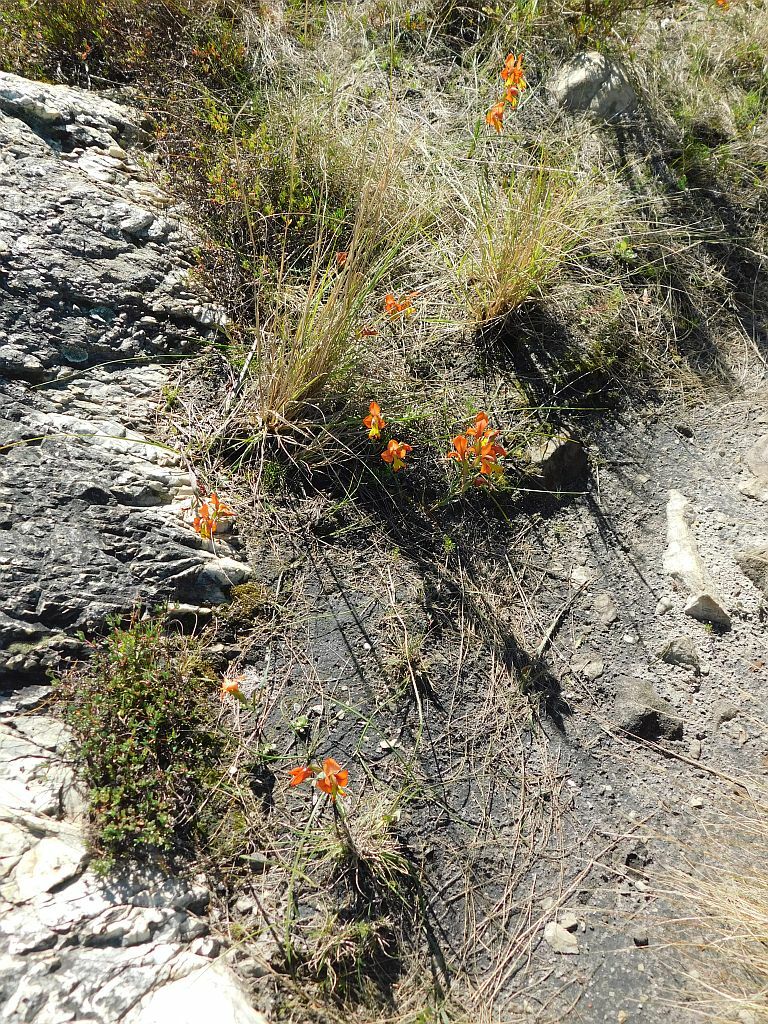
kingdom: Plantae
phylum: Tracheophyta
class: Liliopsida
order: Asparagales
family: Iridaceae
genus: Gladiolus
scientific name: Gladiolus alatus
